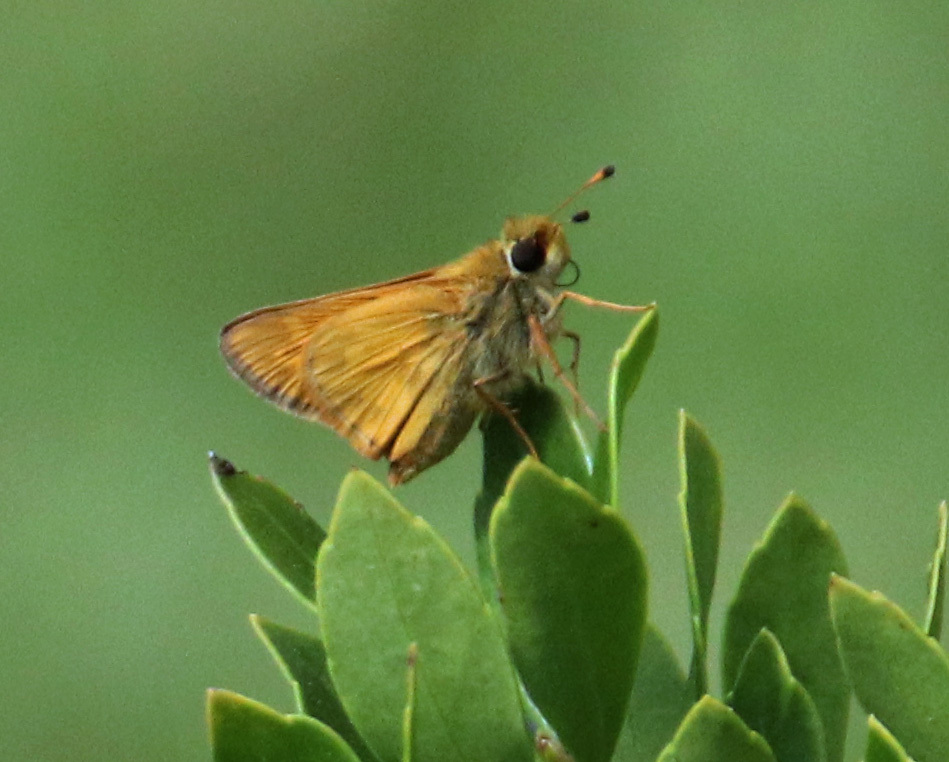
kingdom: Animalia
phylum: Arthropoda
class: Insecta
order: Lepidoptera
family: Hesperiidae
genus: Atalopedes
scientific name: Atalopedes
